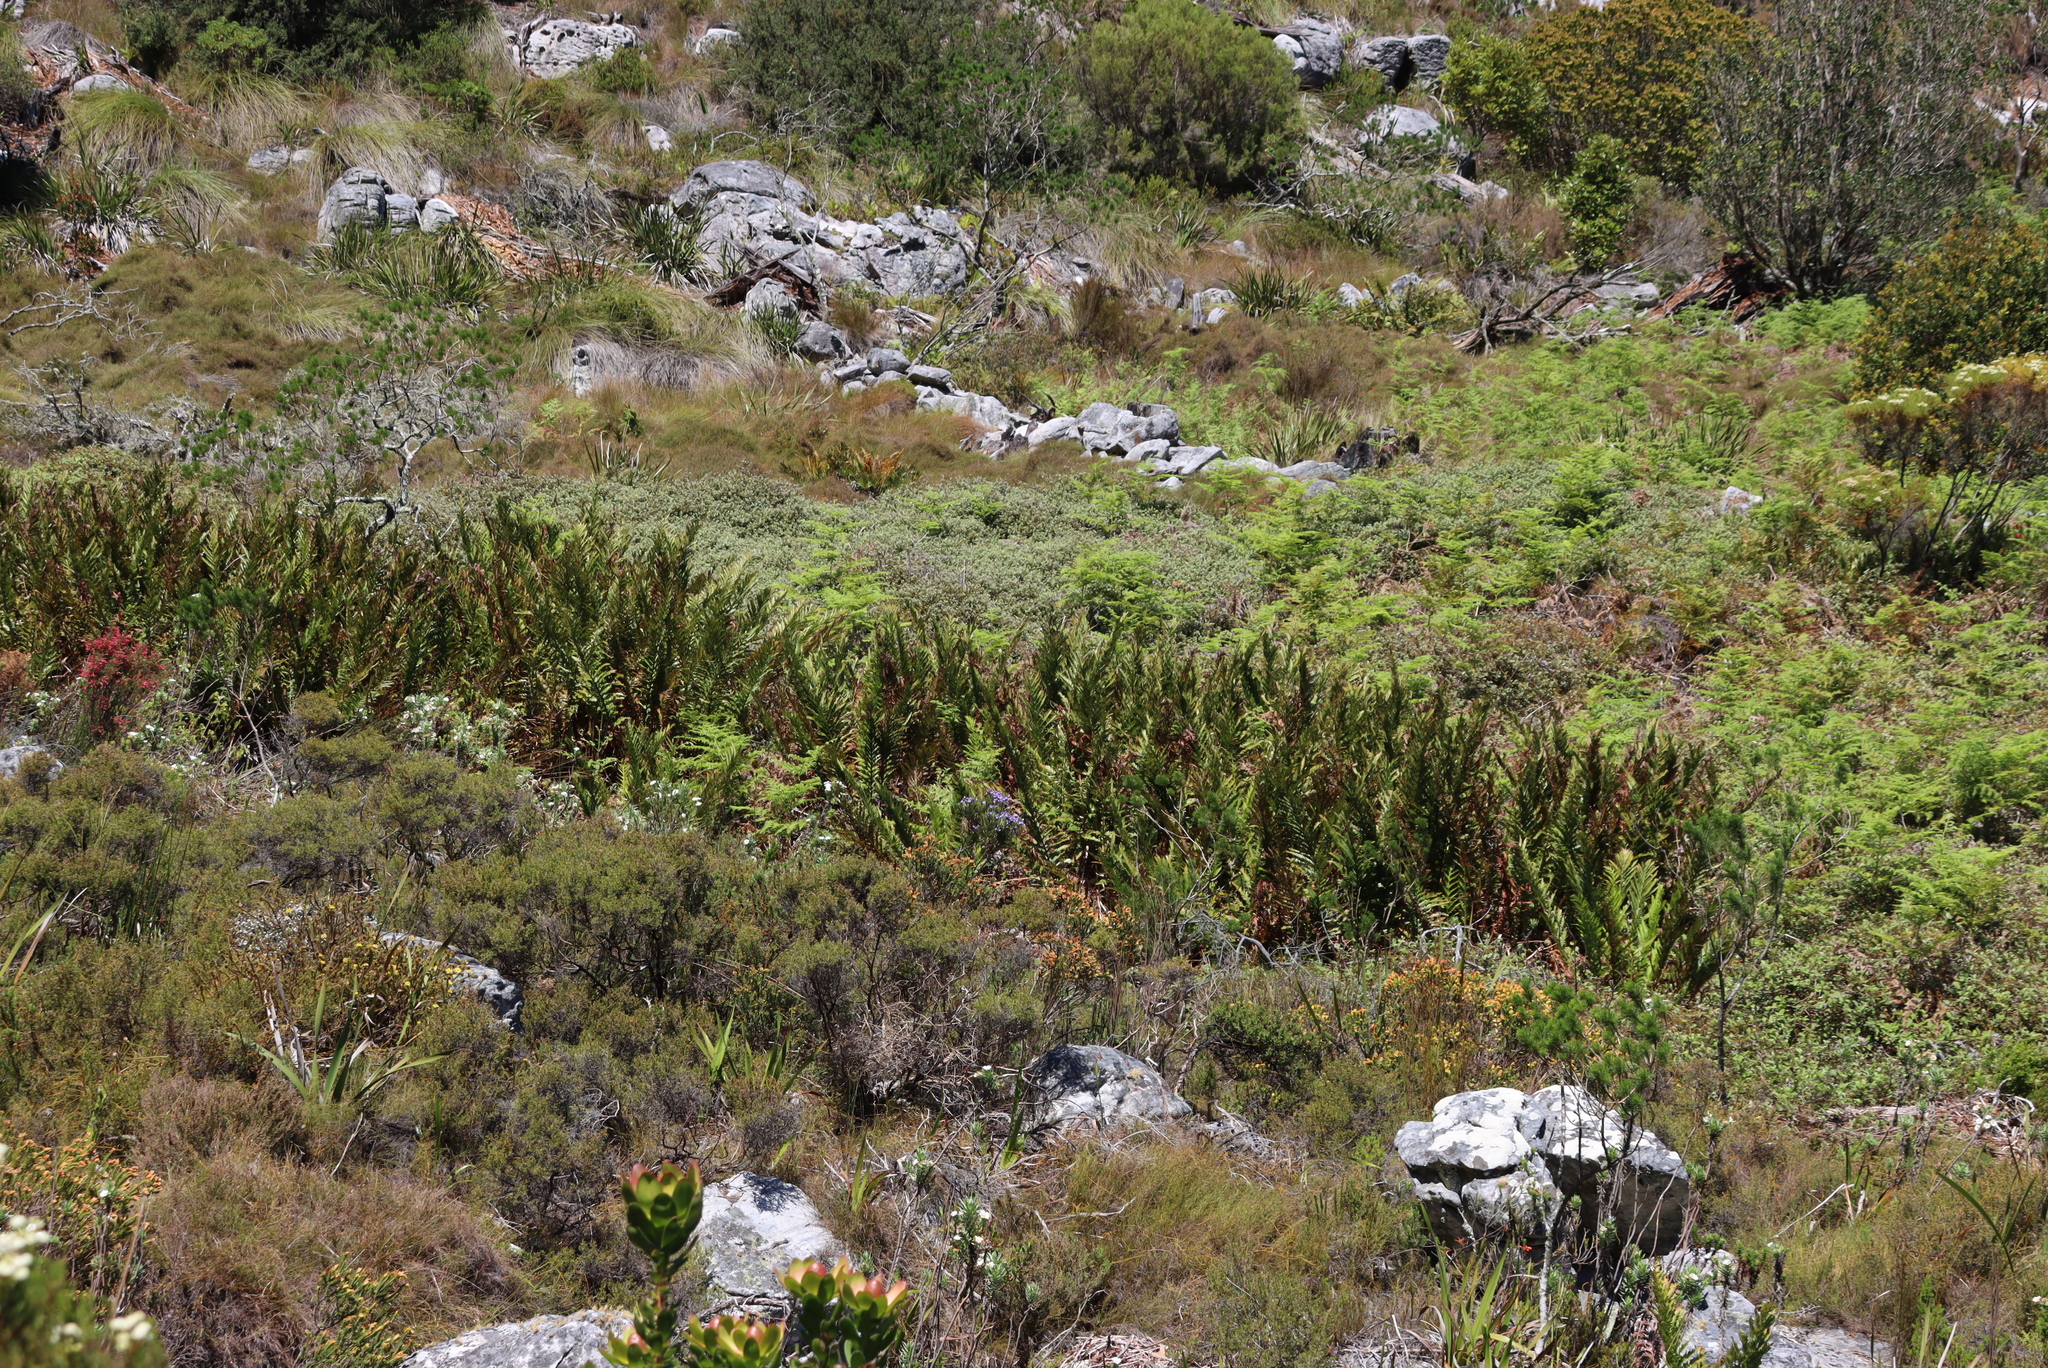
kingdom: Plantae
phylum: Tracheophyta
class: Polypodiopsida
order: Osmundales
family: Osmundaceae
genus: Todea
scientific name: Todea barbara
